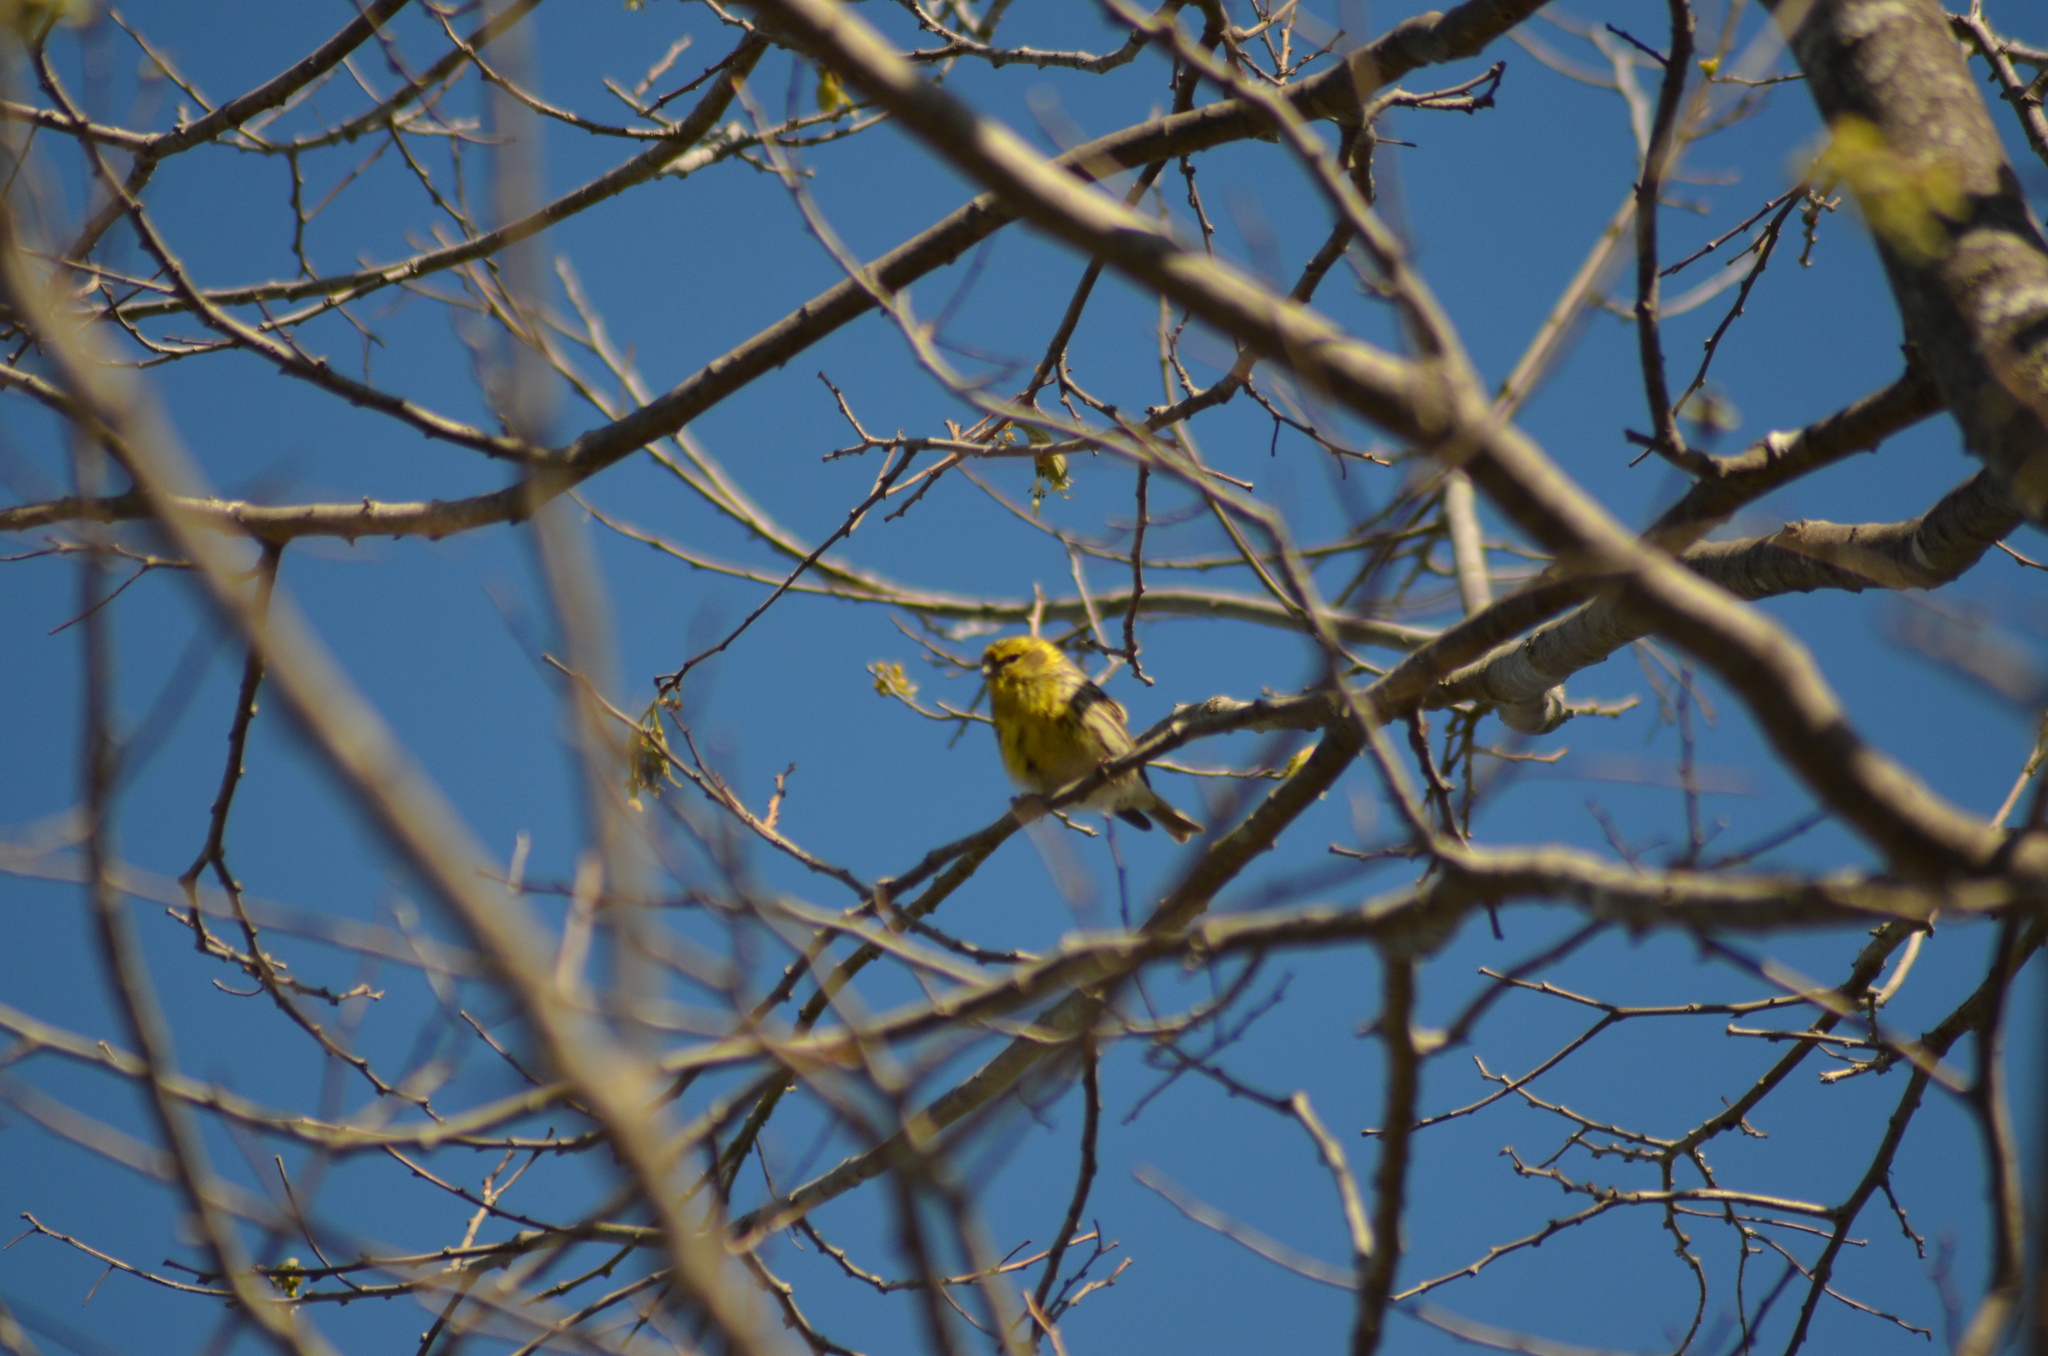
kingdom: Animalia
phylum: Chordata
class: Aves
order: Passeriformes
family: Fringillidae
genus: Serinus
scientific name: Serinus serinus
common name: European serin
